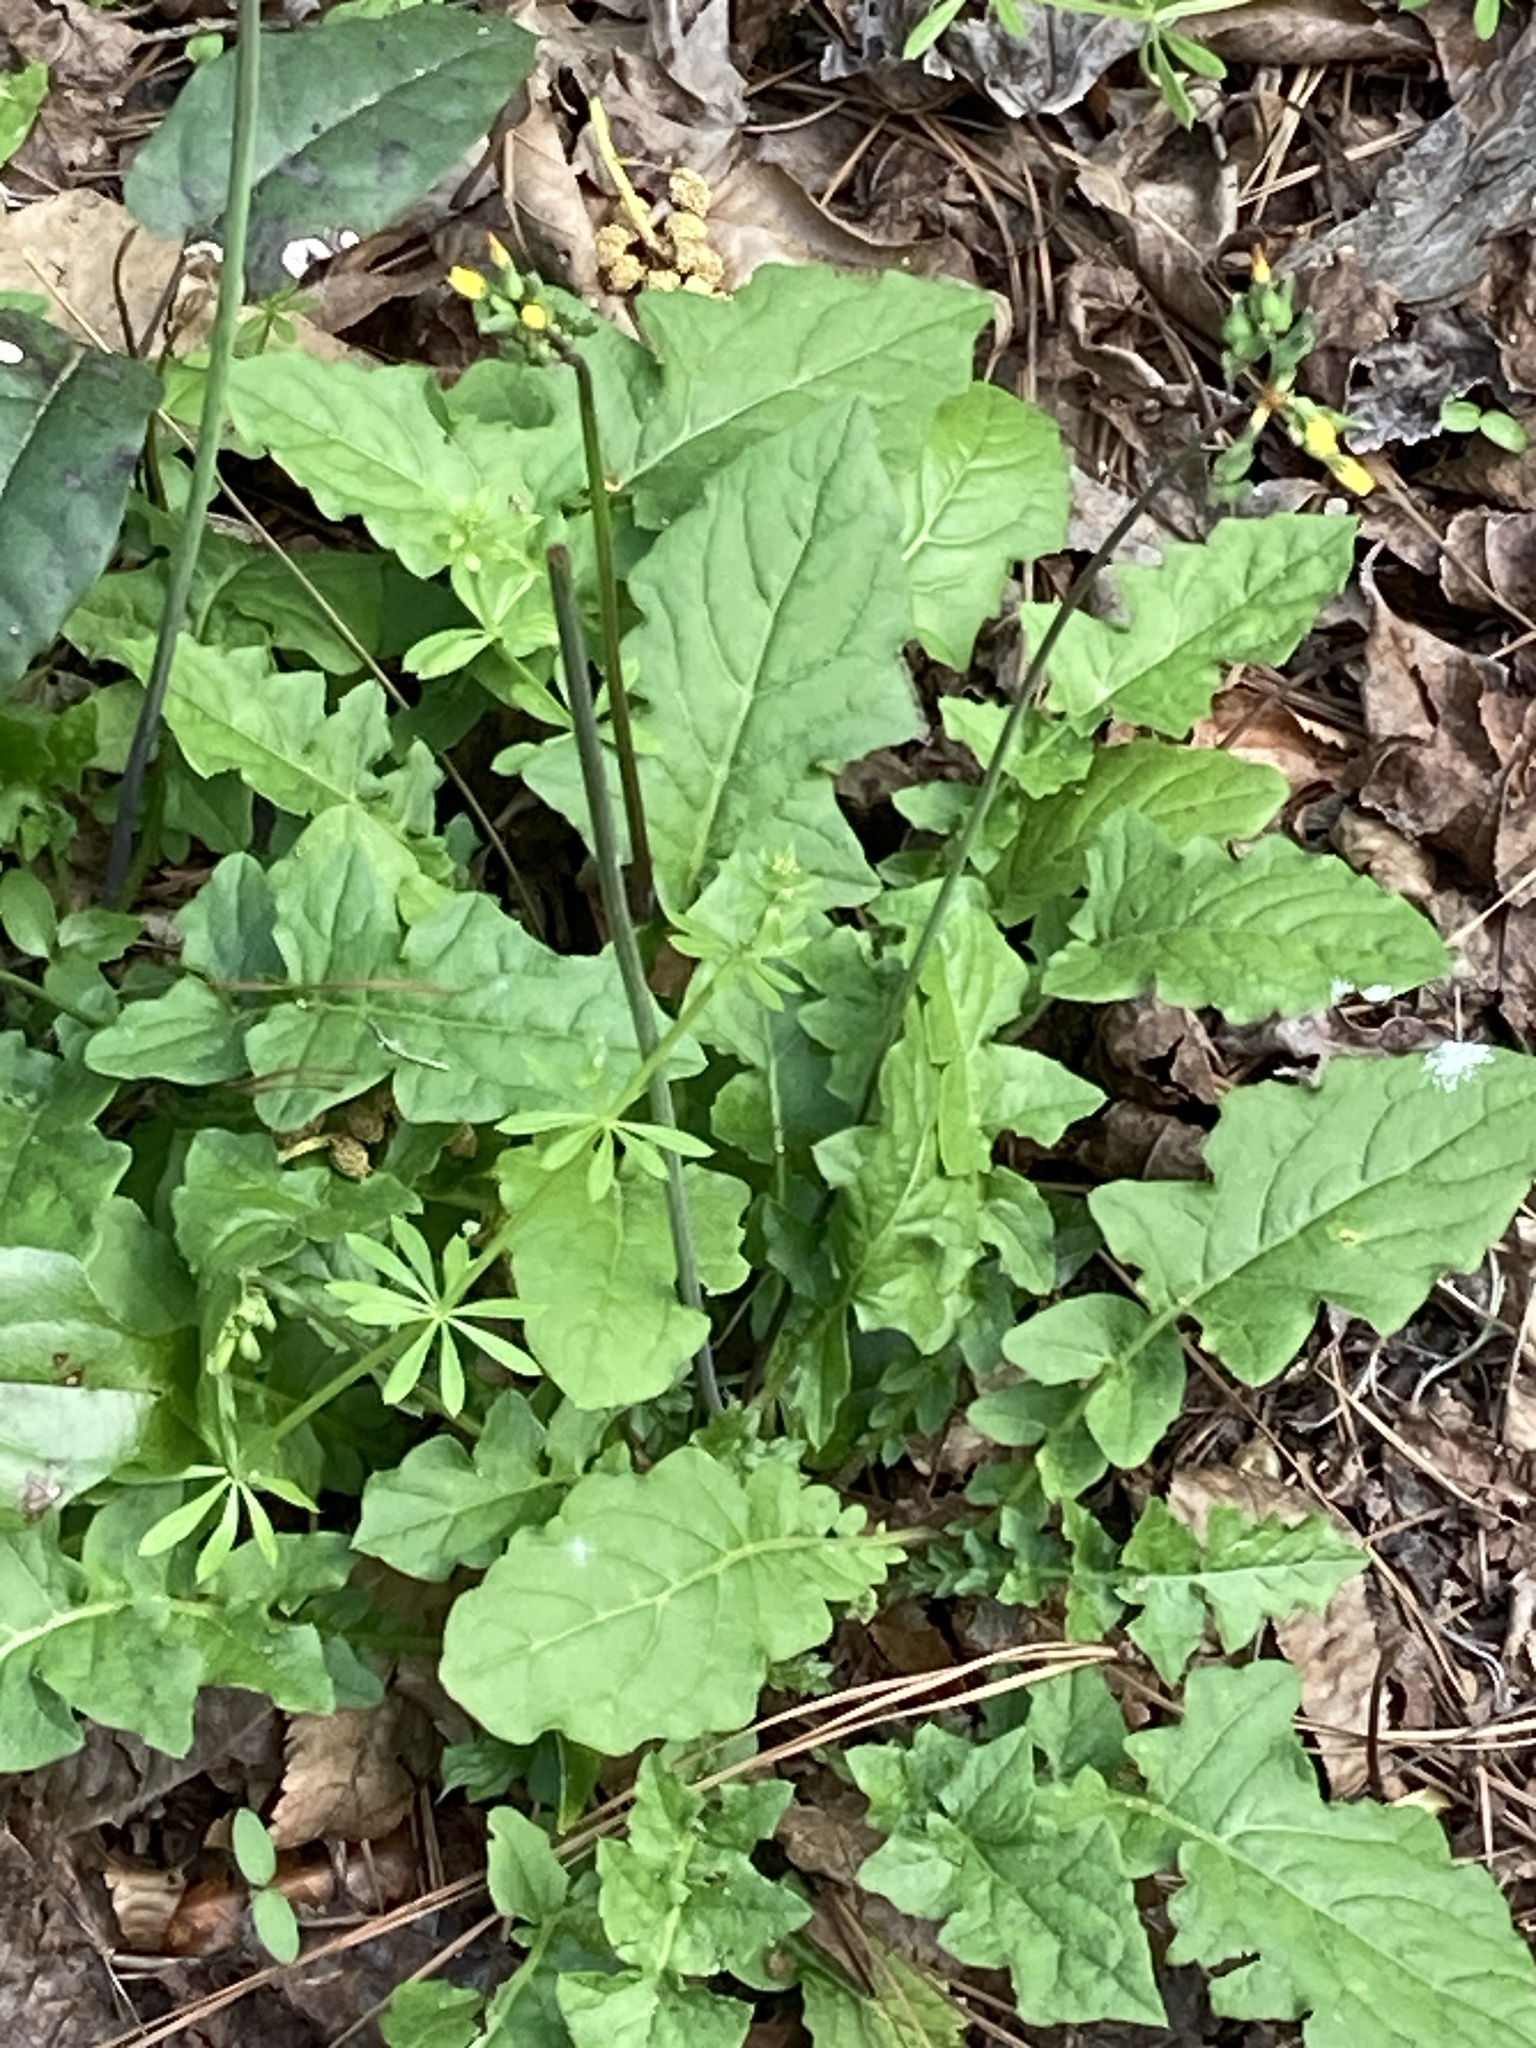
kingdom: Plantae
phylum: Tracheophyta
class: Magnoliopsida
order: Asterales
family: Asteraceae
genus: Youngia
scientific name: Youngia japonica
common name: Oriental false hawksbeard
